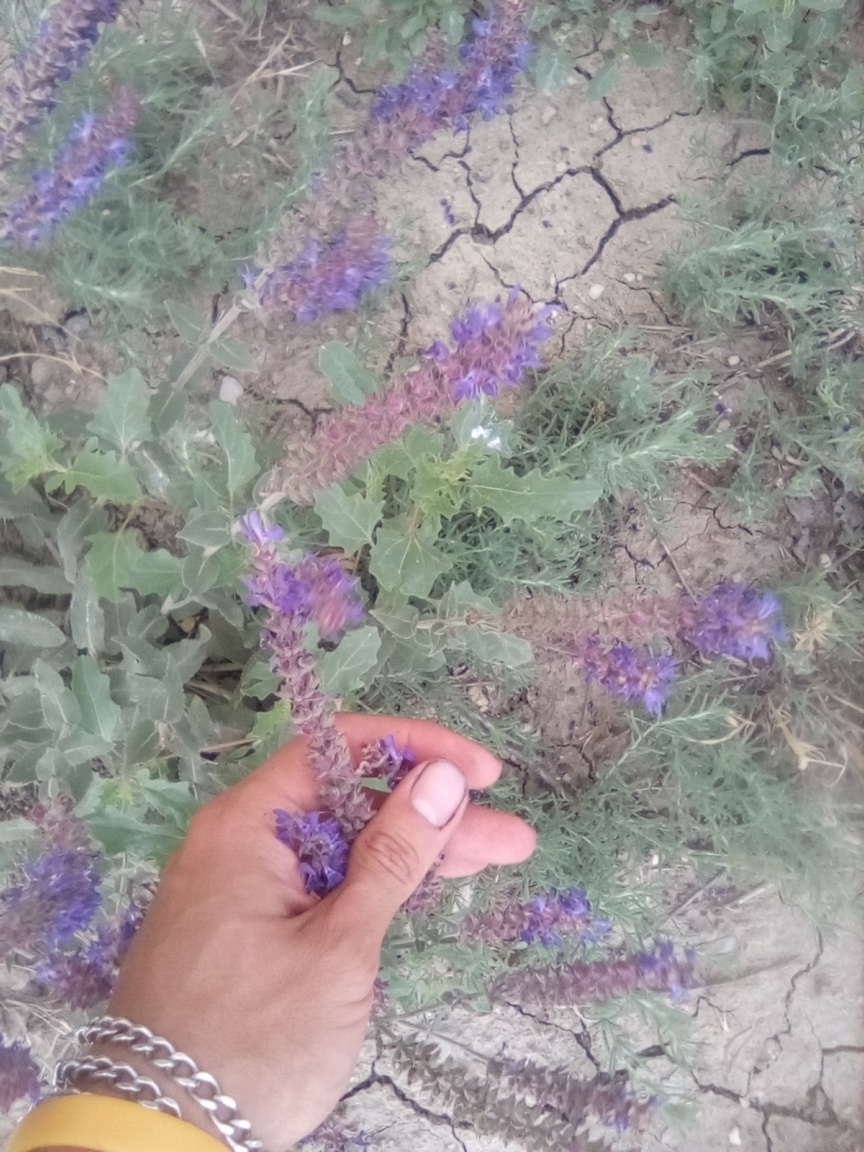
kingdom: Plantae
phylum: Tracheophyta
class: Magnoliopsida
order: Lamiales
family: Lamiaceae
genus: Salvia
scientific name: Salvia nemorosa
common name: Balkan clary
